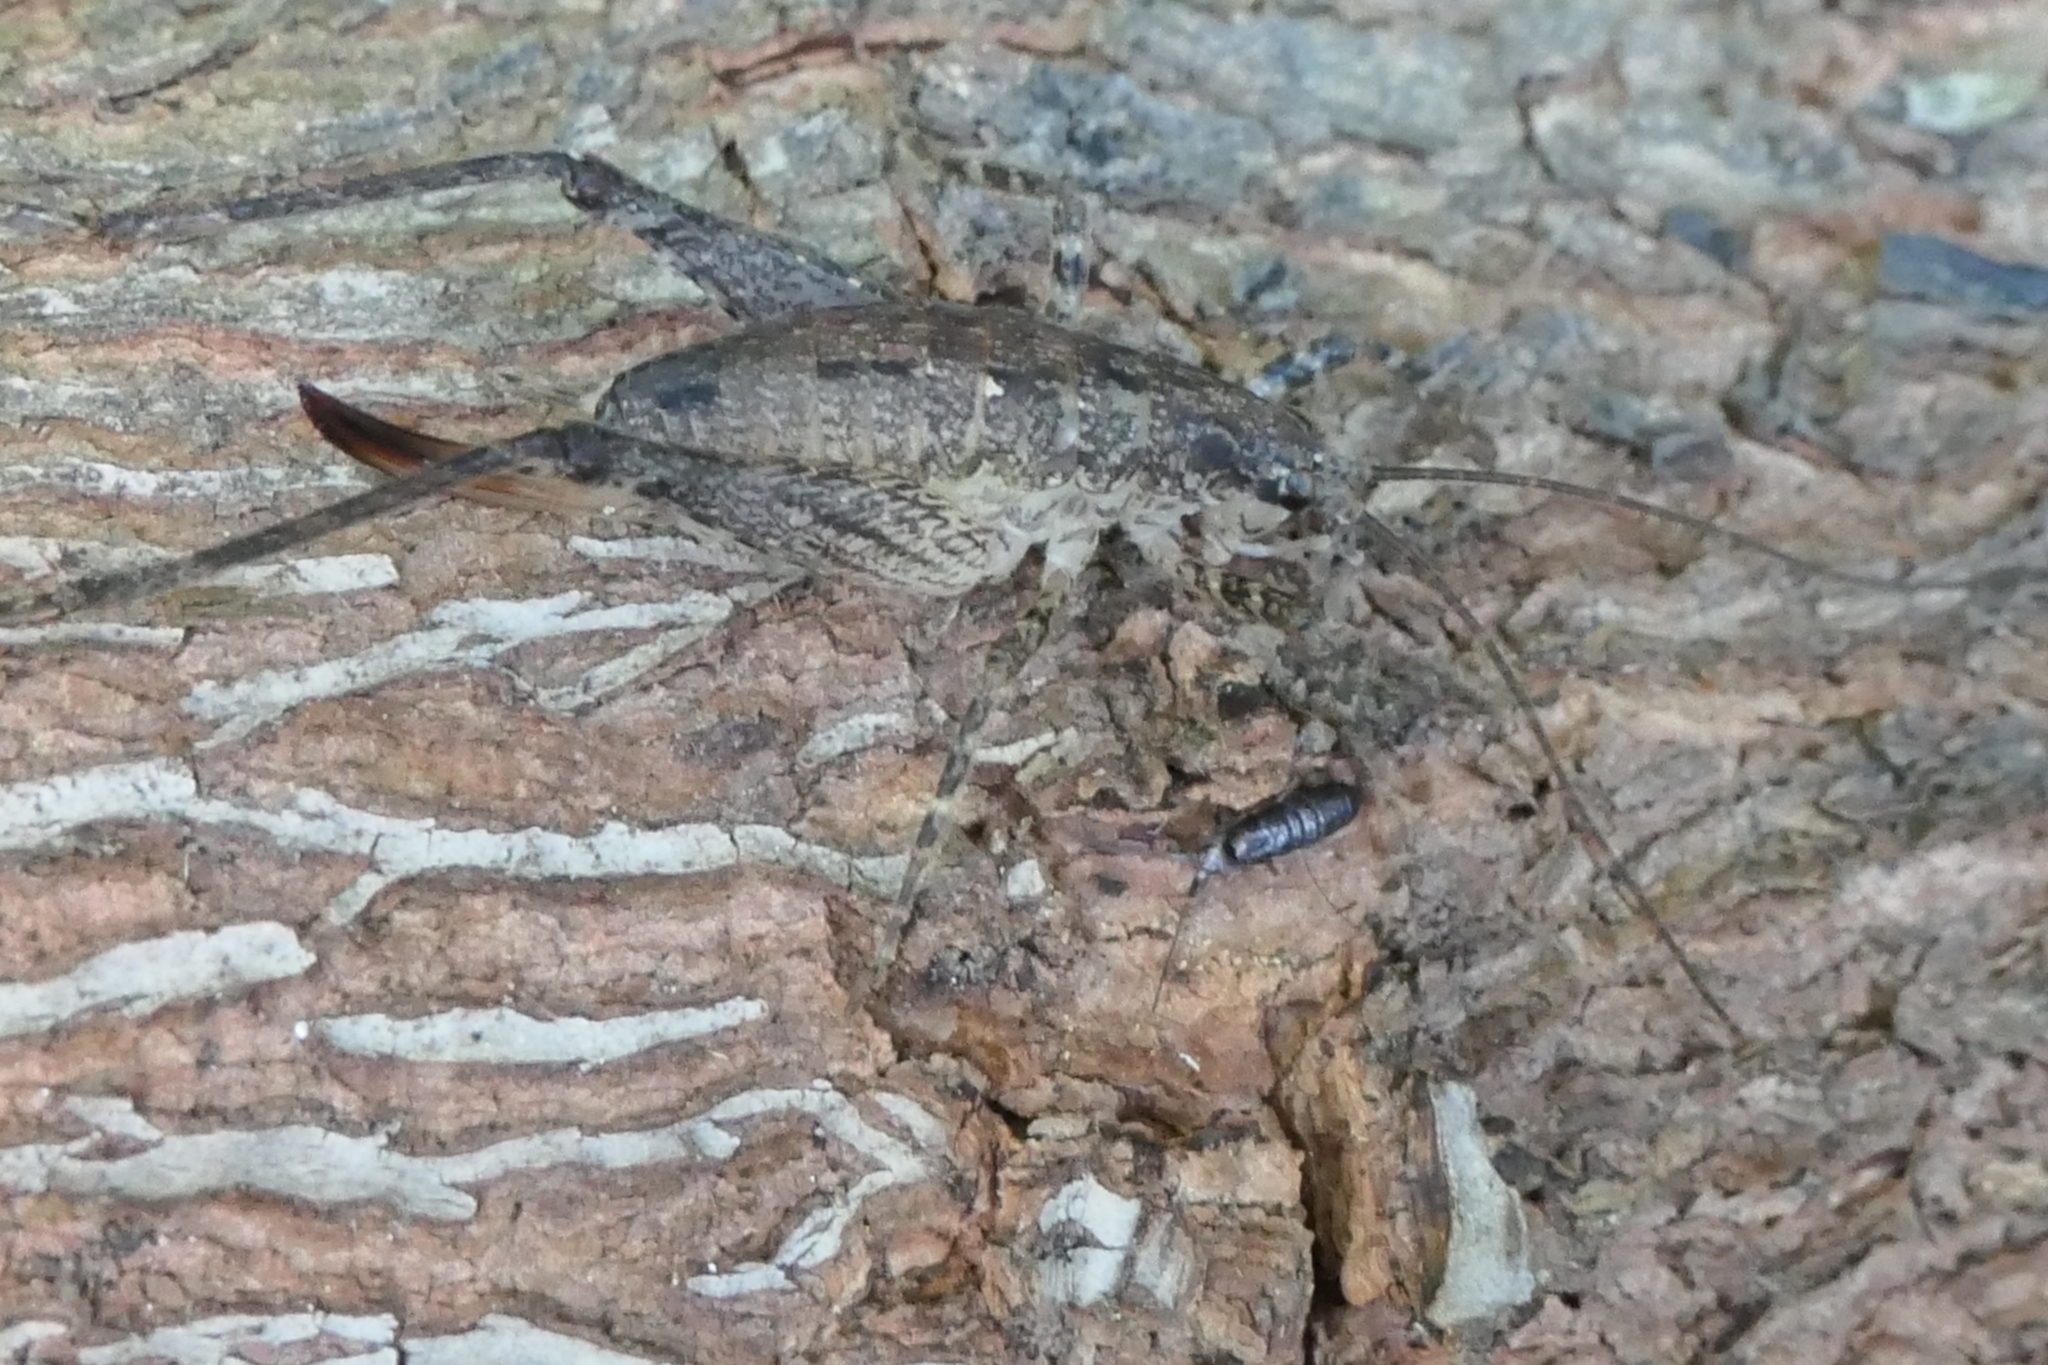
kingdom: Animalia
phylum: Arthropoda
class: Insecta
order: Orthoptera
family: Rhaphidophoridae
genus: Isoplectron
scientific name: Isoplectron armatum
